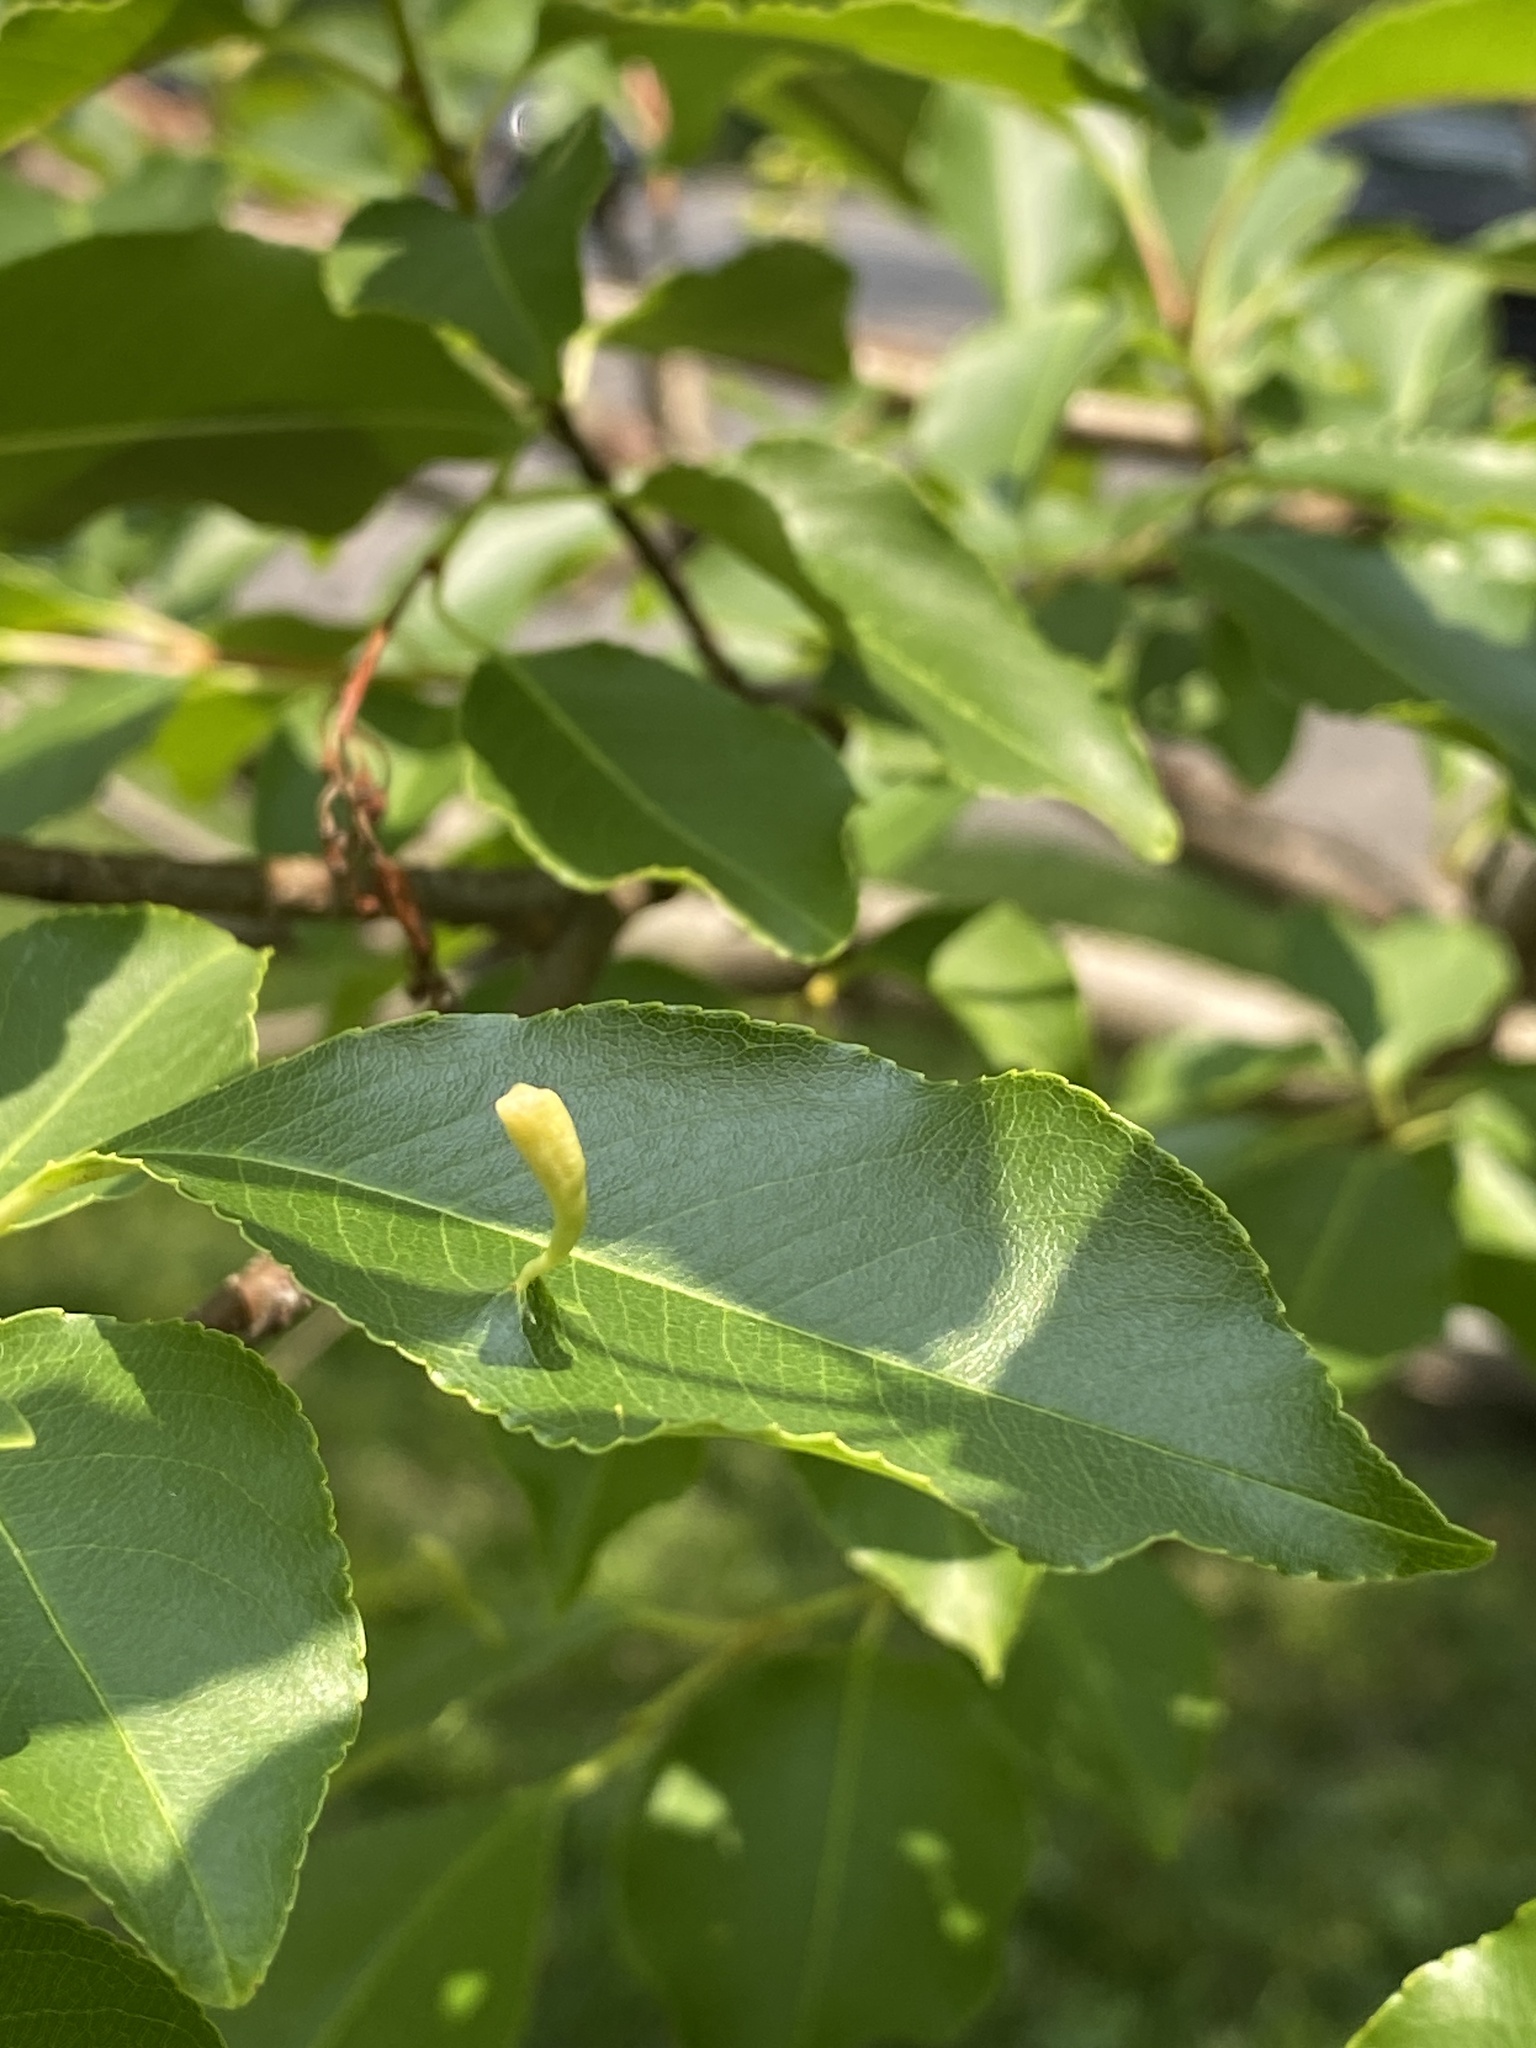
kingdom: Animalia
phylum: Arthropoda
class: Arachnida
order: Trombidiformes
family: Eriophyidae
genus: Eriophyes
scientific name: Eriophyes
